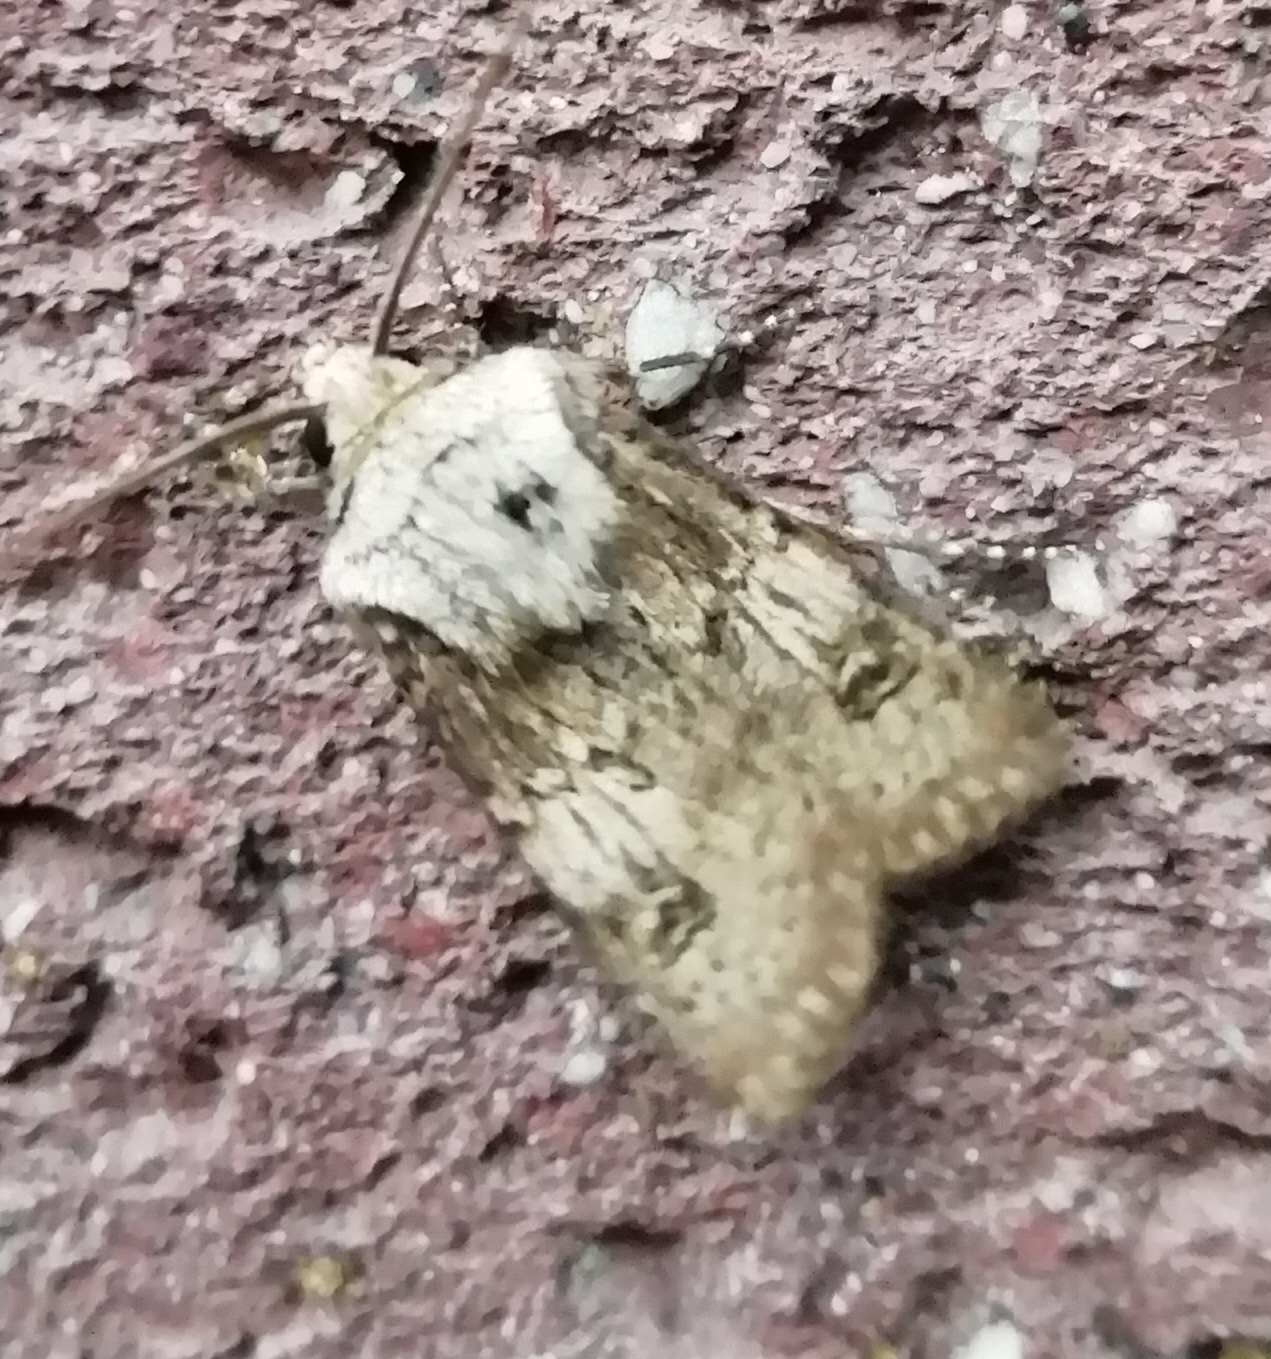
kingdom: Animalia
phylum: Arthropoda
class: Insecta
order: Lepidoptera
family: Noctuidae
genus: Agrotis
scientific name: Agrotis puta
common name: Shuttle-shaped dart
